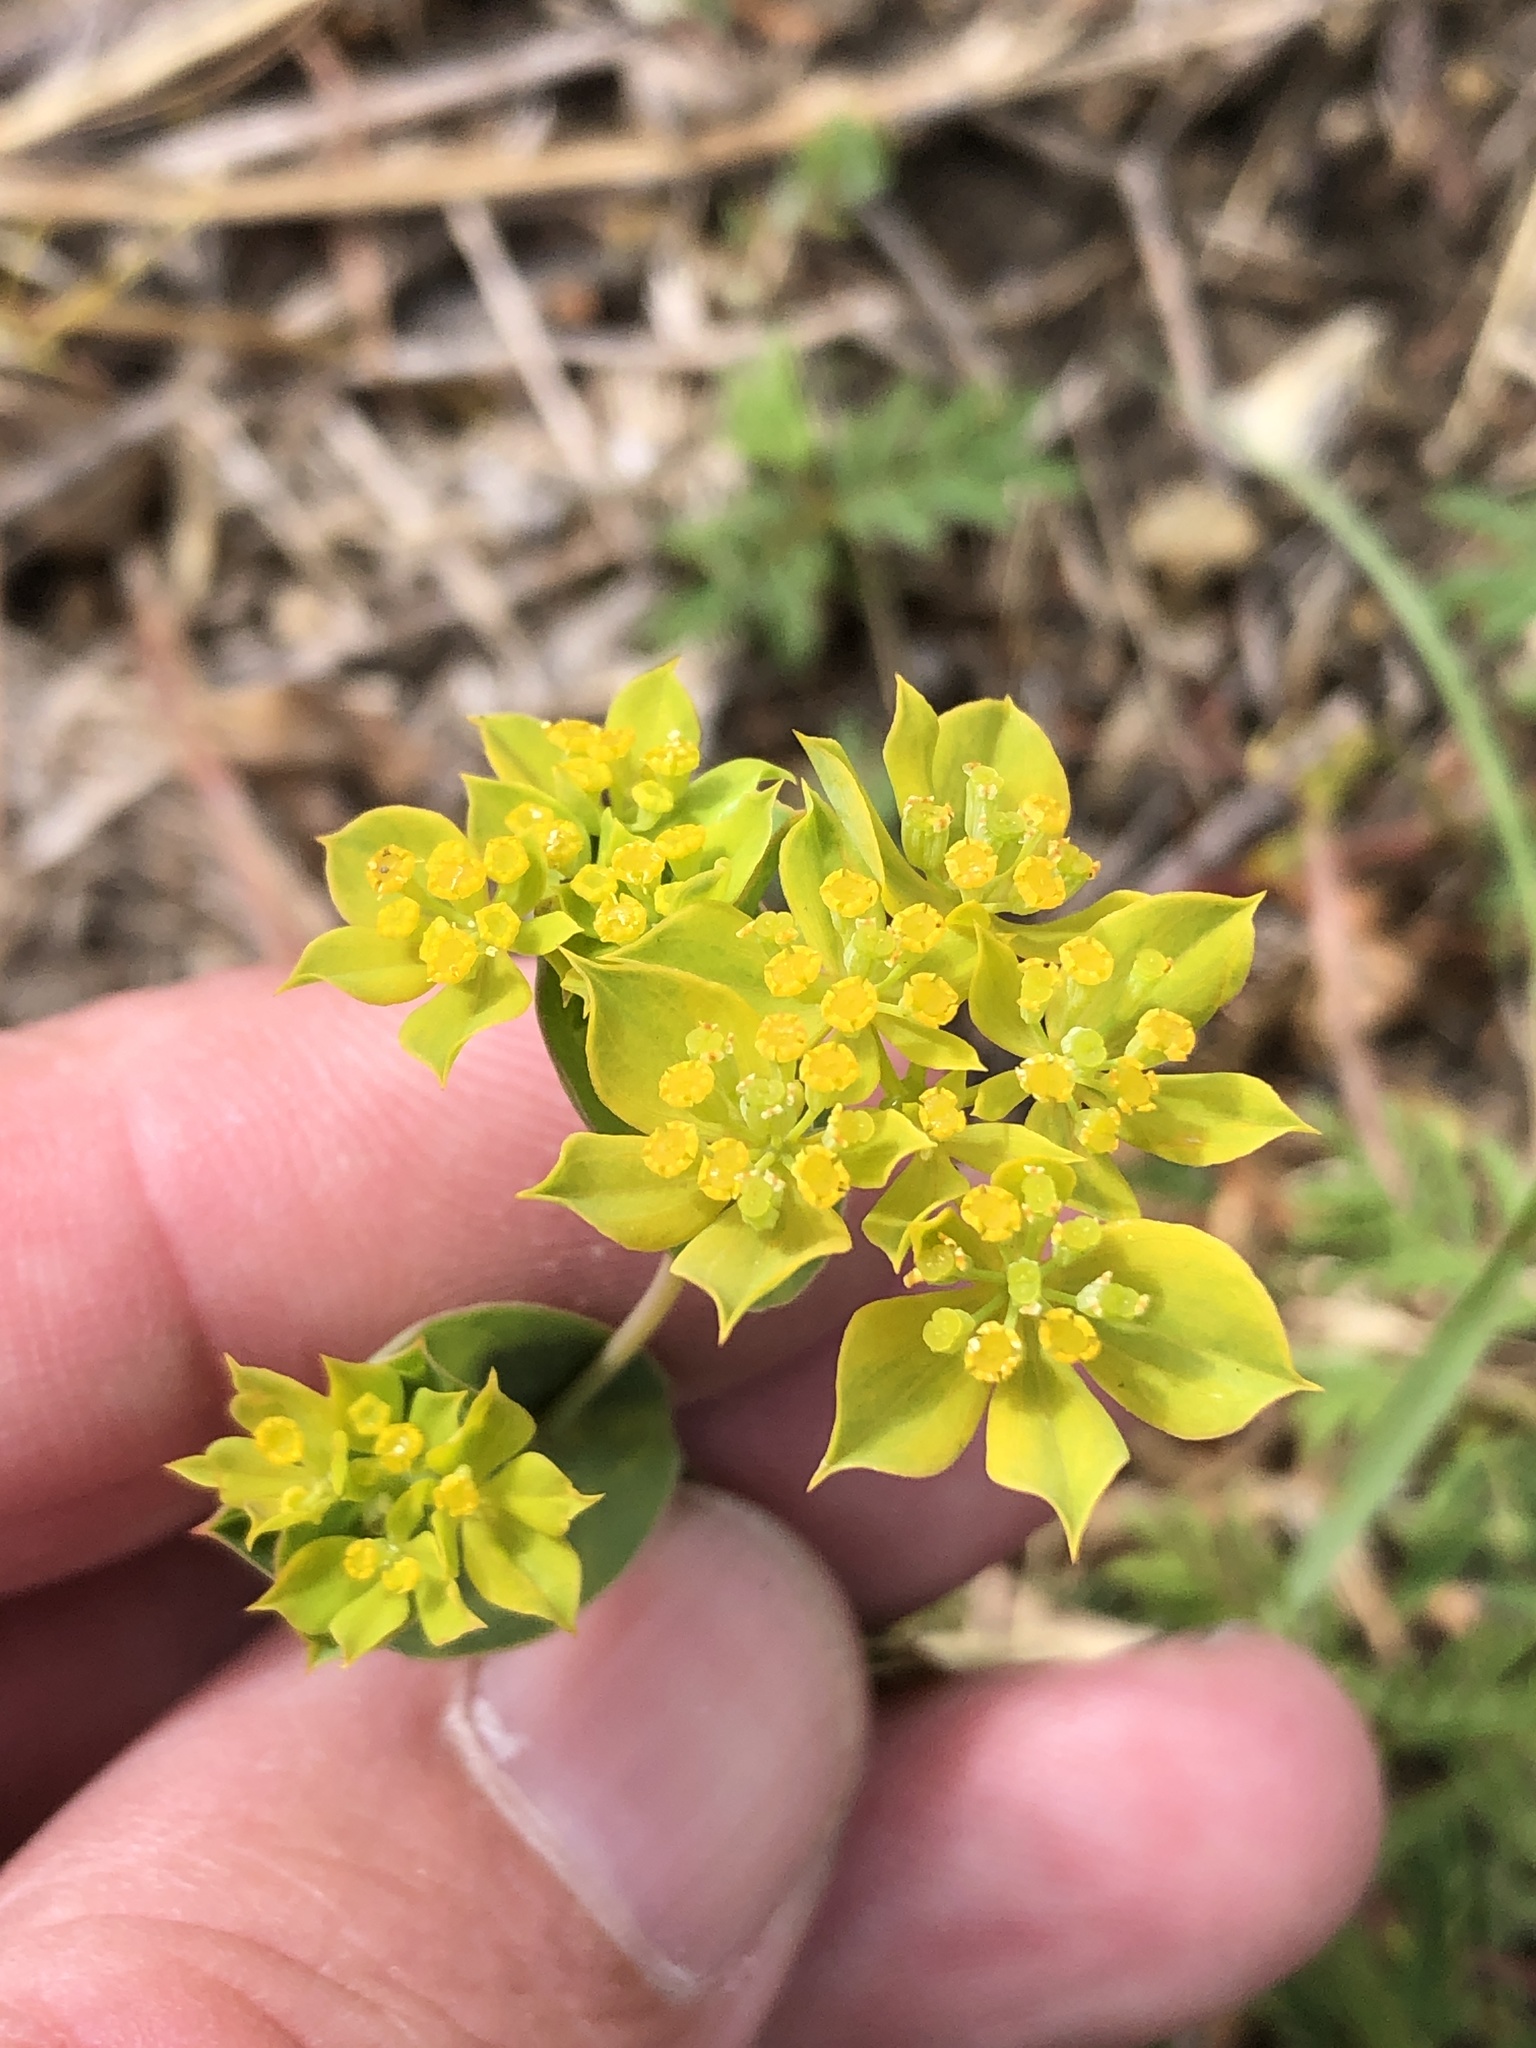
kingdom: Plantae
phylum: Tracheophyta
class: Magnoliopsida
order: Apiales
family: Apiaceae
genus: Bupleurum
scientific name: Bupleurum rotundifolium
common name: Thorow-wax
